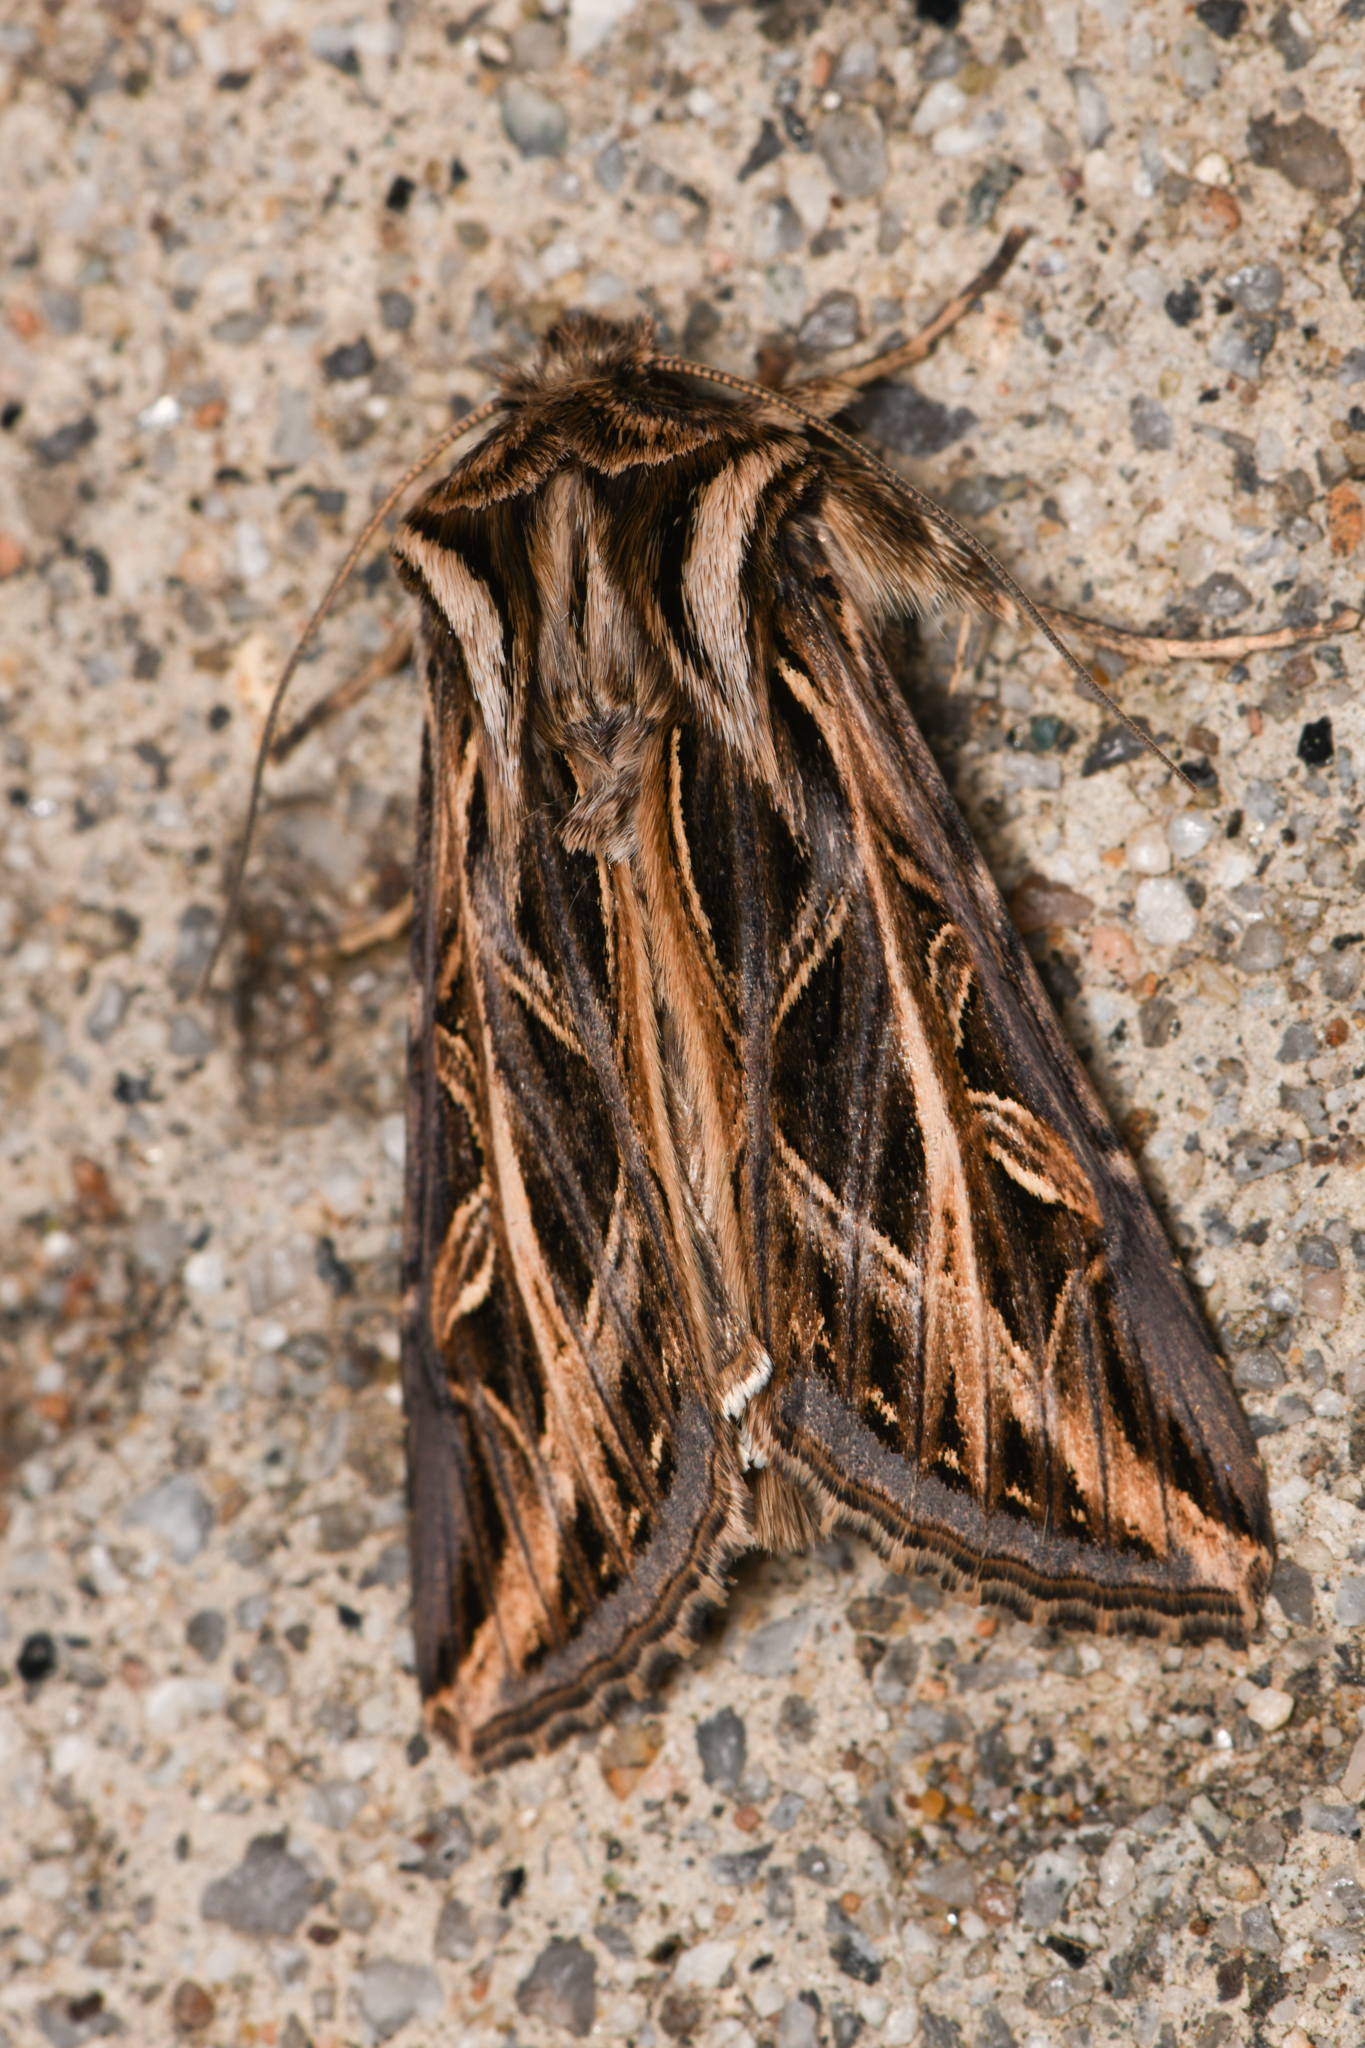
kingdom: Animalia
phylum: Arthropoda
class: Insecta
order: Lepidoptera
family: Noctuidae
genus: Dargida
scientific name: Dargida procinctus
